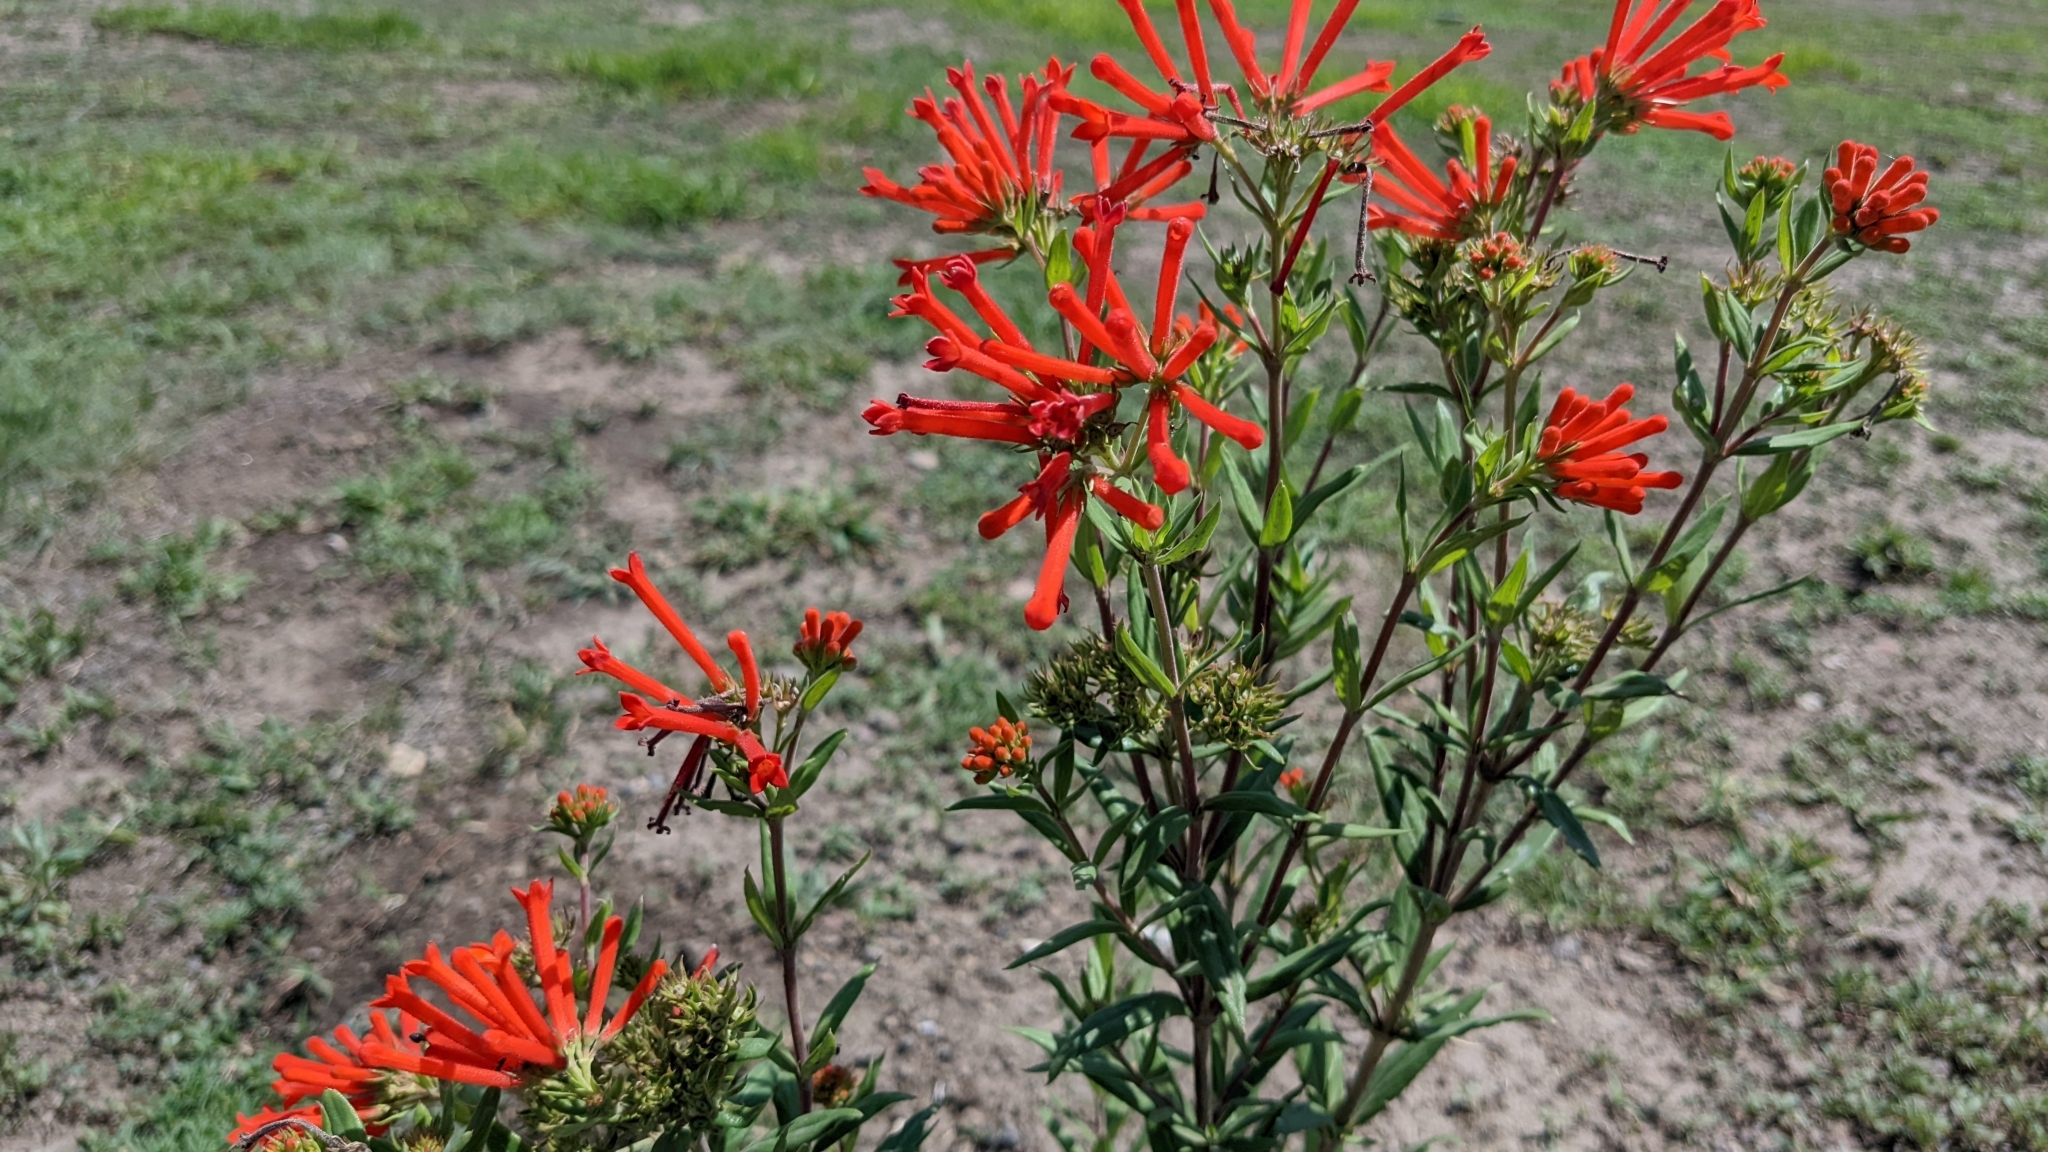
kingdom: Plantae
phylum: Tracheophyta
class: Magnoliopsida
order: Gentianales
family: Rubiaceae
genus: Bouvardia
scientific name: Bouvardia ternifolia
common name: Scarlet bouvardia
